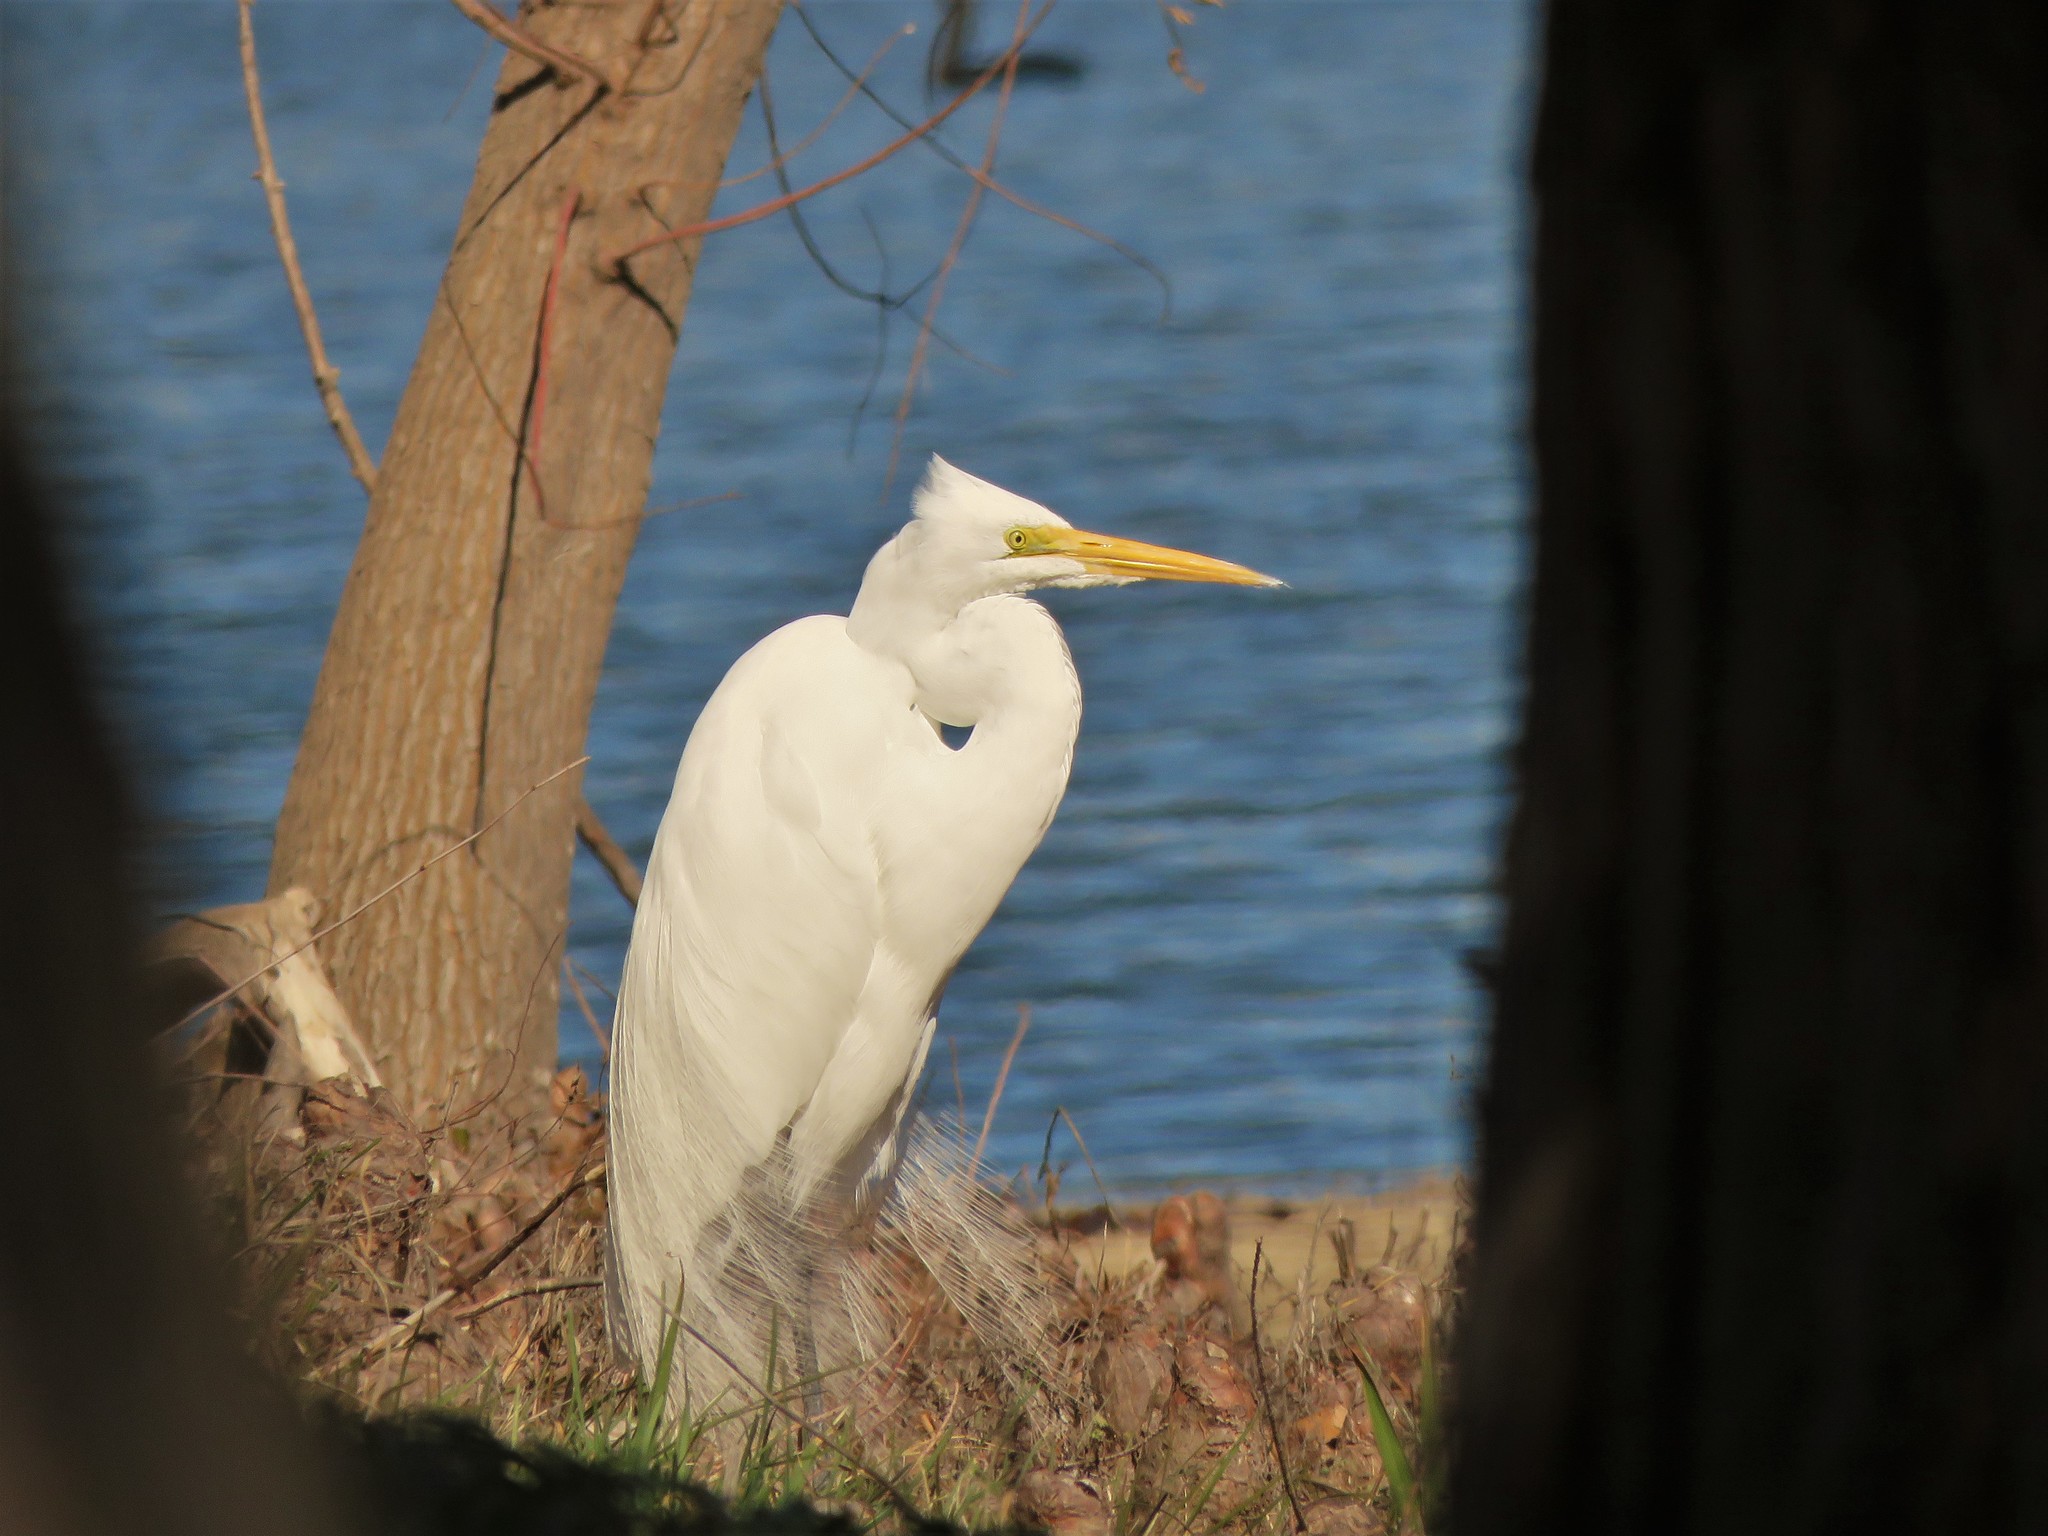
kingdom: Animalia
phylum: Chordata
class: Aves
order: Pelecaniformes
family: Ardeidae
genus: Ardea
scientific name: Ardea alba
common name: Great egret
